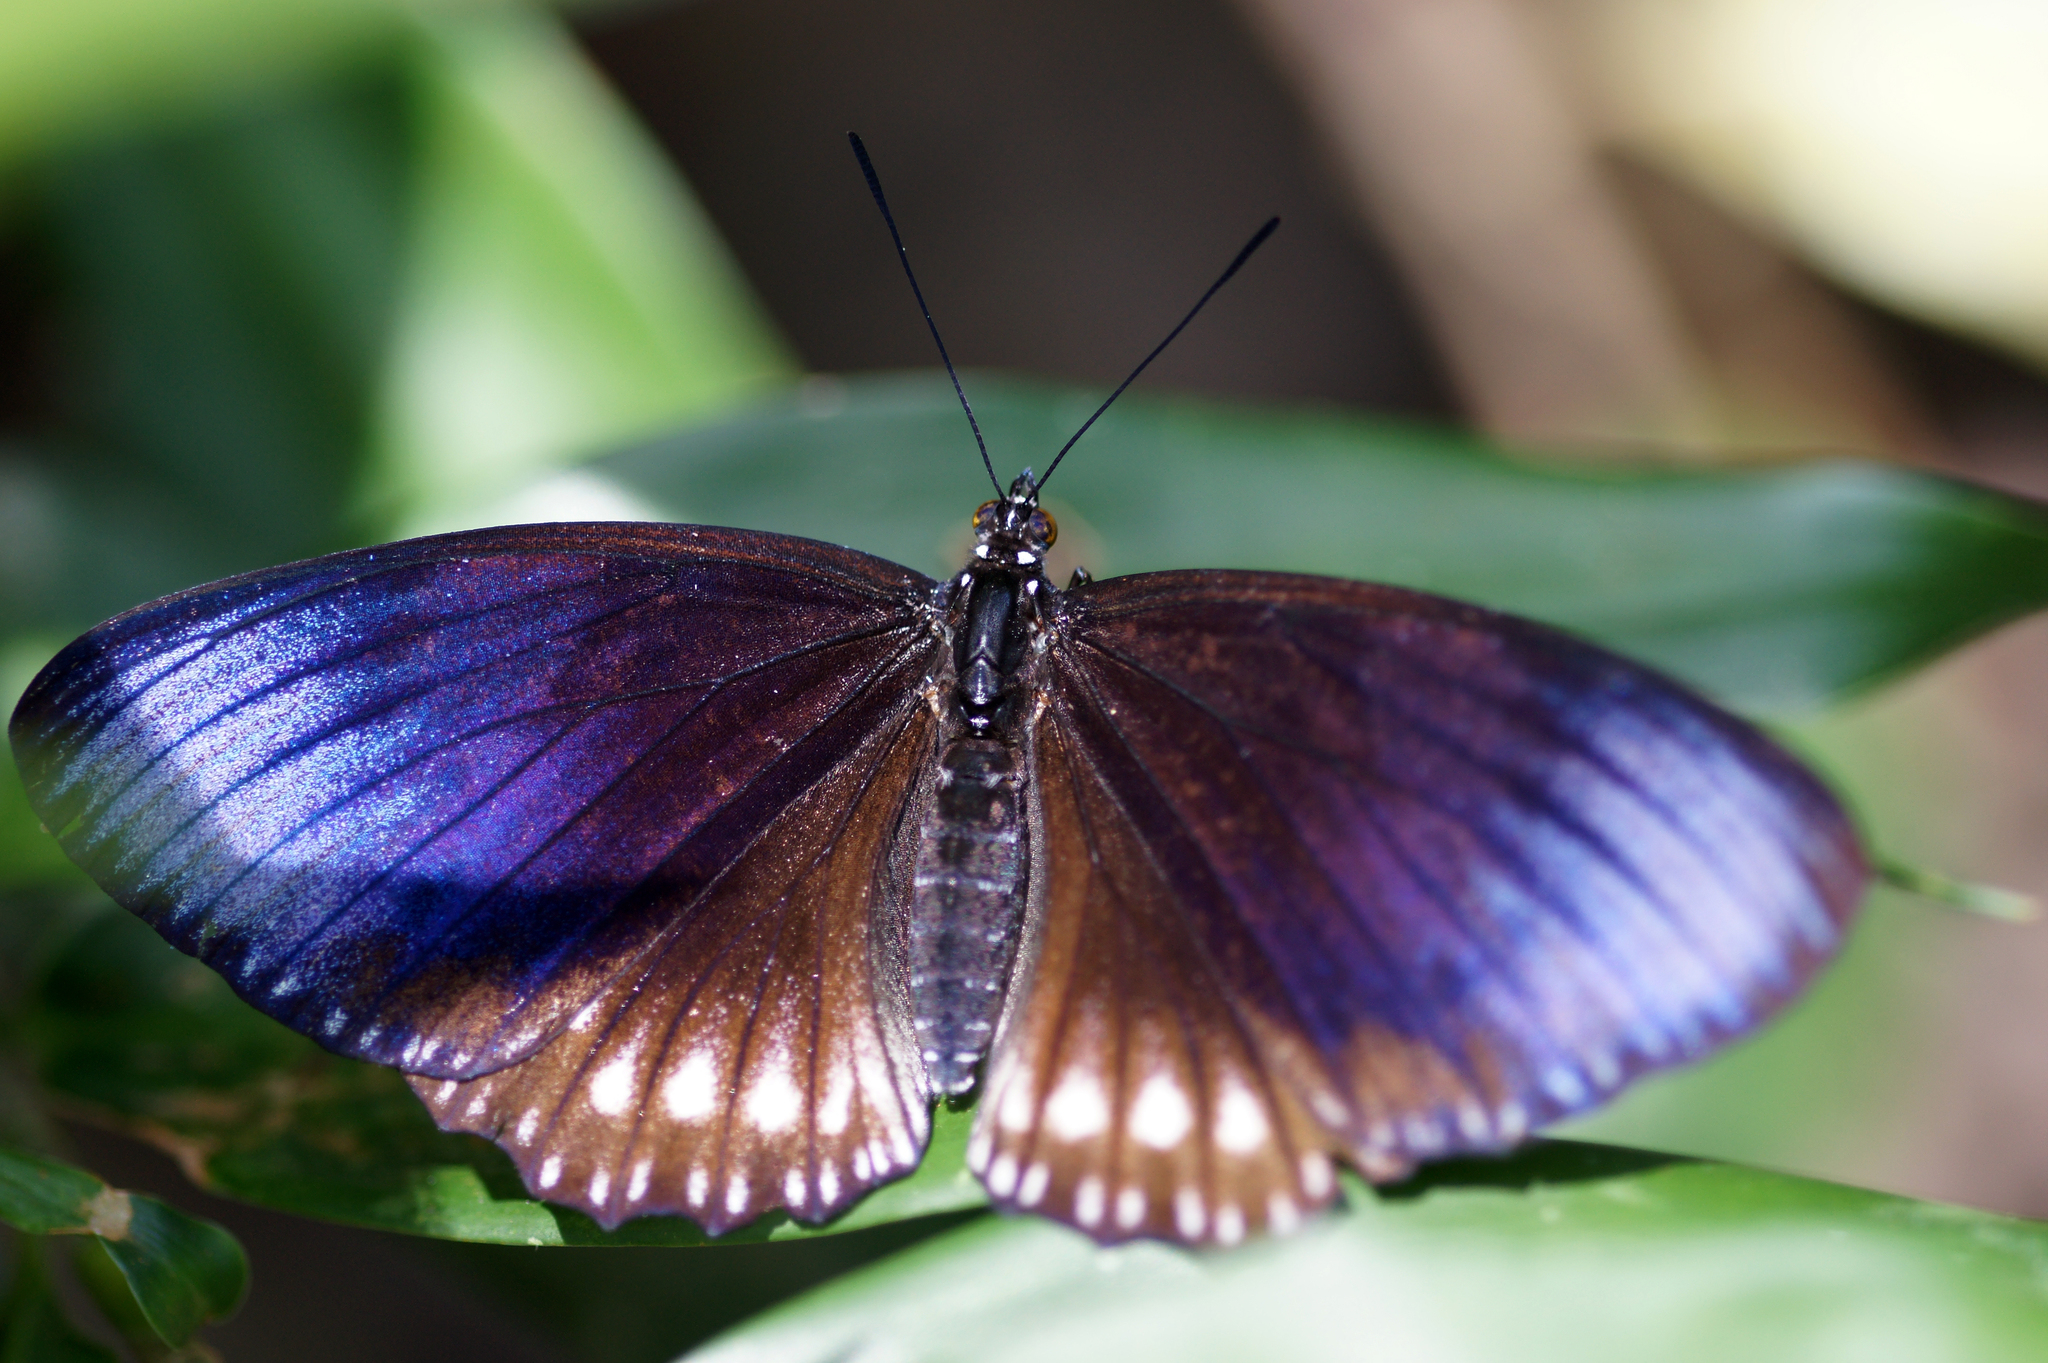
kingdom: Animalia
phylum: Arthropoda
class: Insecta
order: Lepidoptera
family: Nymphalidae
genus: Euripus
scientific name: Euripus nyctelius
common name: Courtesan
